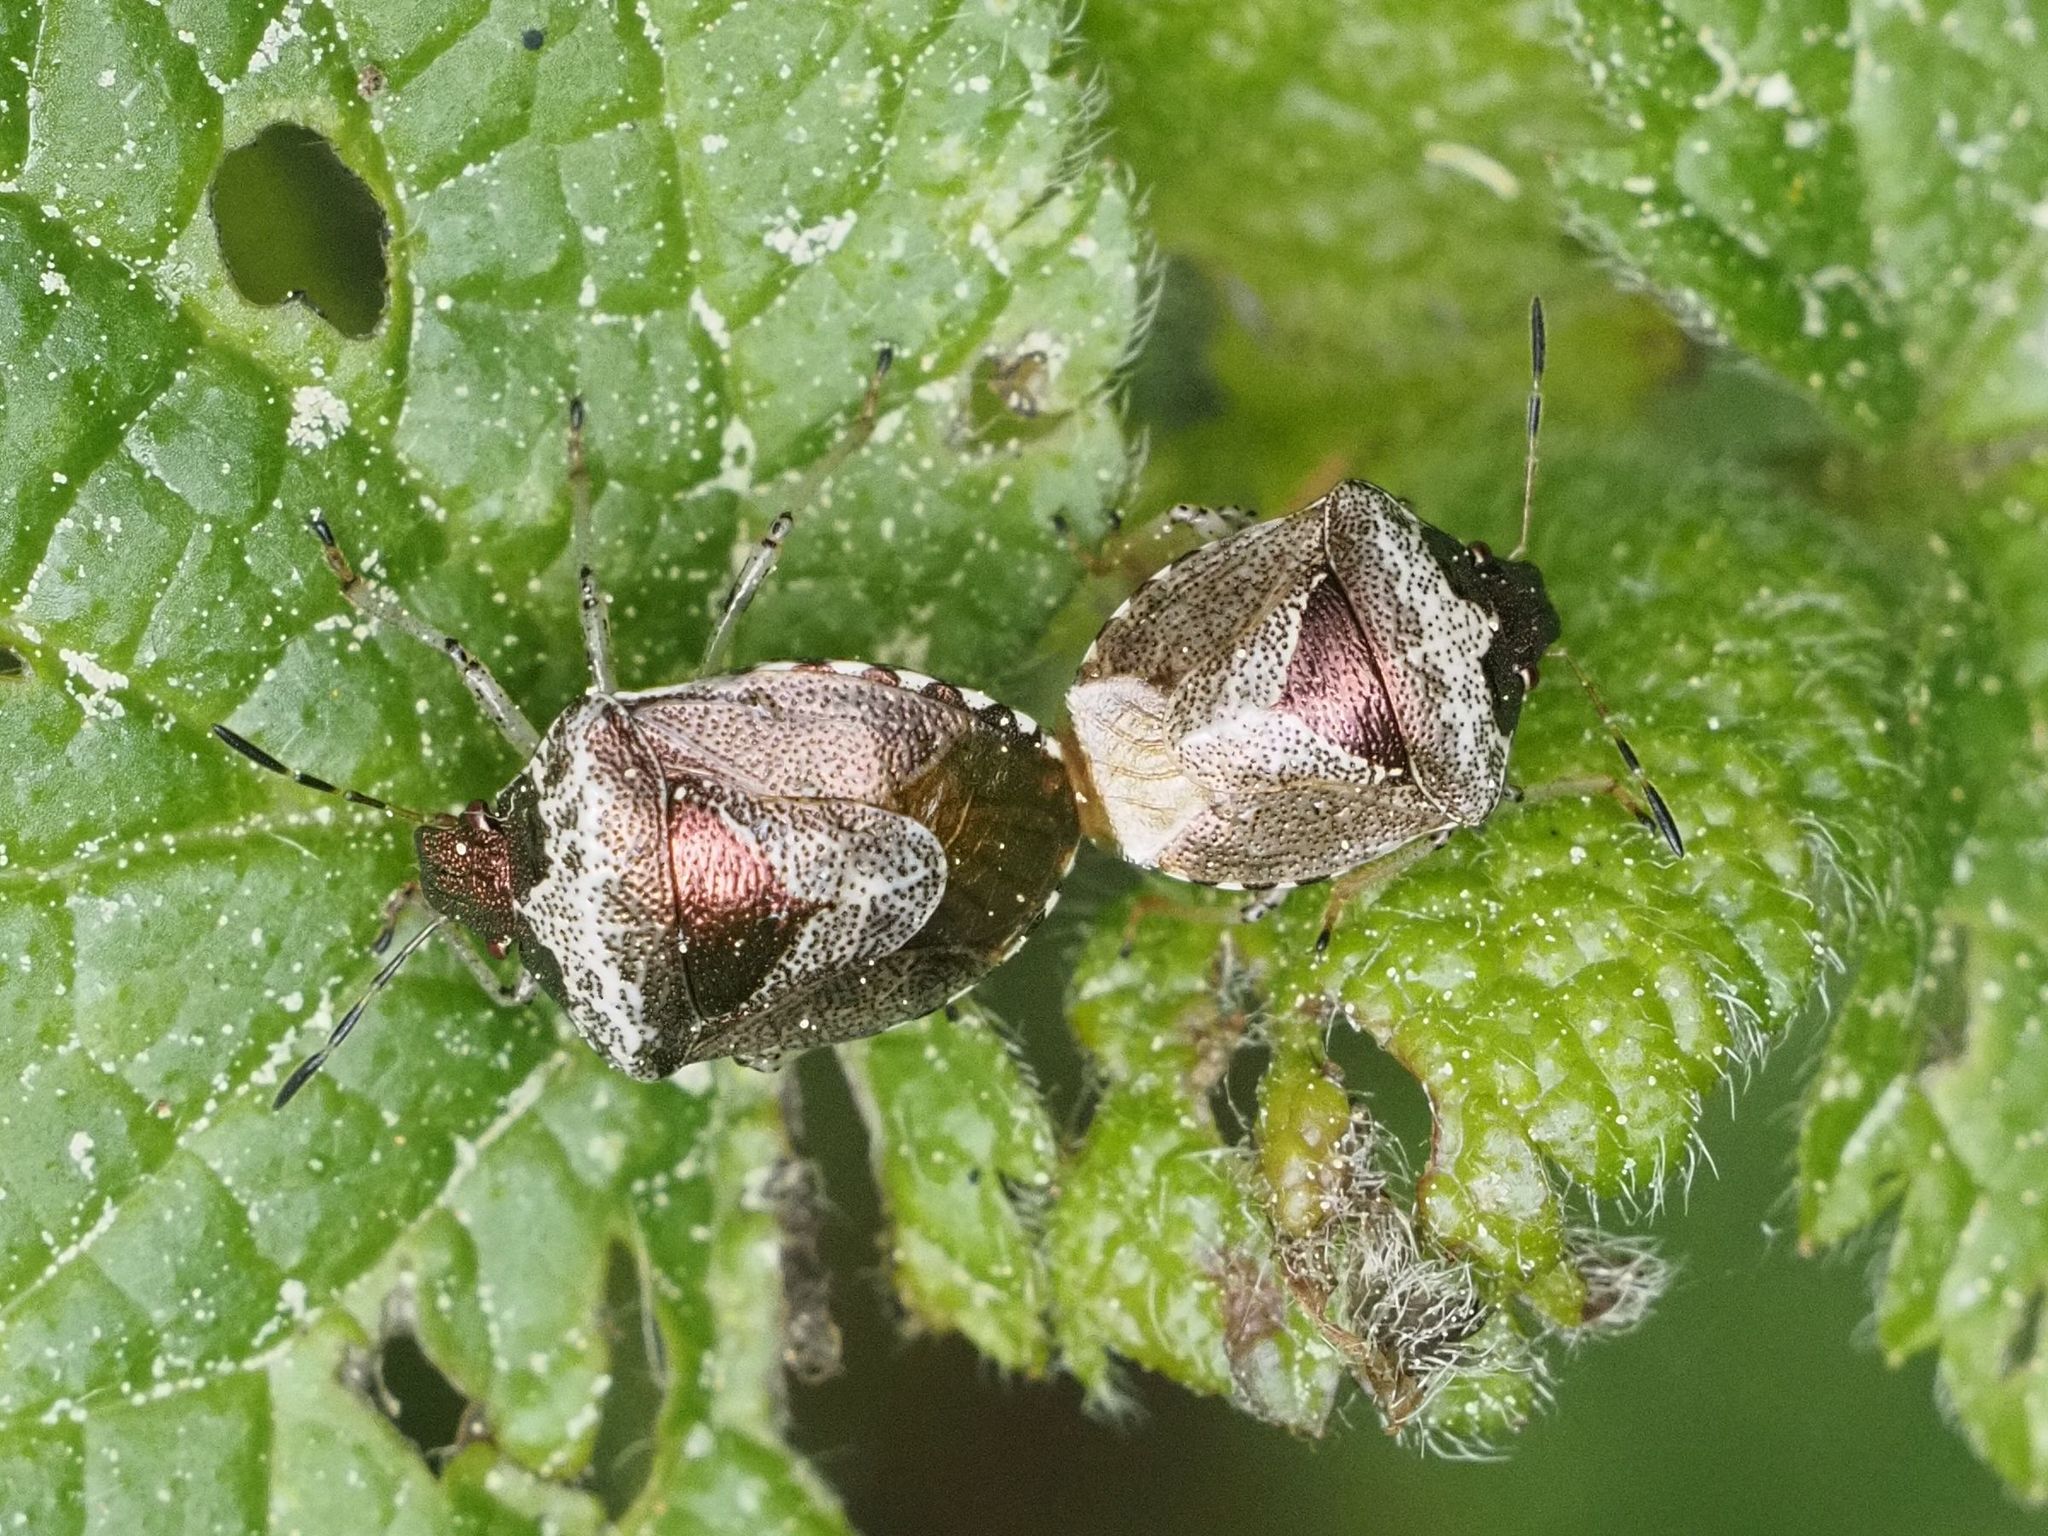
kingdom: Animalia
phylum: Arthropoda
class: Insecta
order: Hemiptera
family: Pentatomidae
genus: Eysarcoris
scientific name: Eysarcoris venustissimus
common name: Woundwort shieldbug
